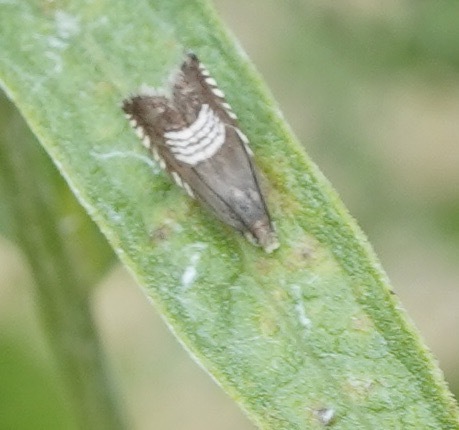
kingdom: Animalia
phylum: Arthropoda
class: Insecta
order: Lepidoptera
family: Tortricidae
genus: Grapholita
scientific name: Grapholita compositella
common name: Triple-stripe piercer
